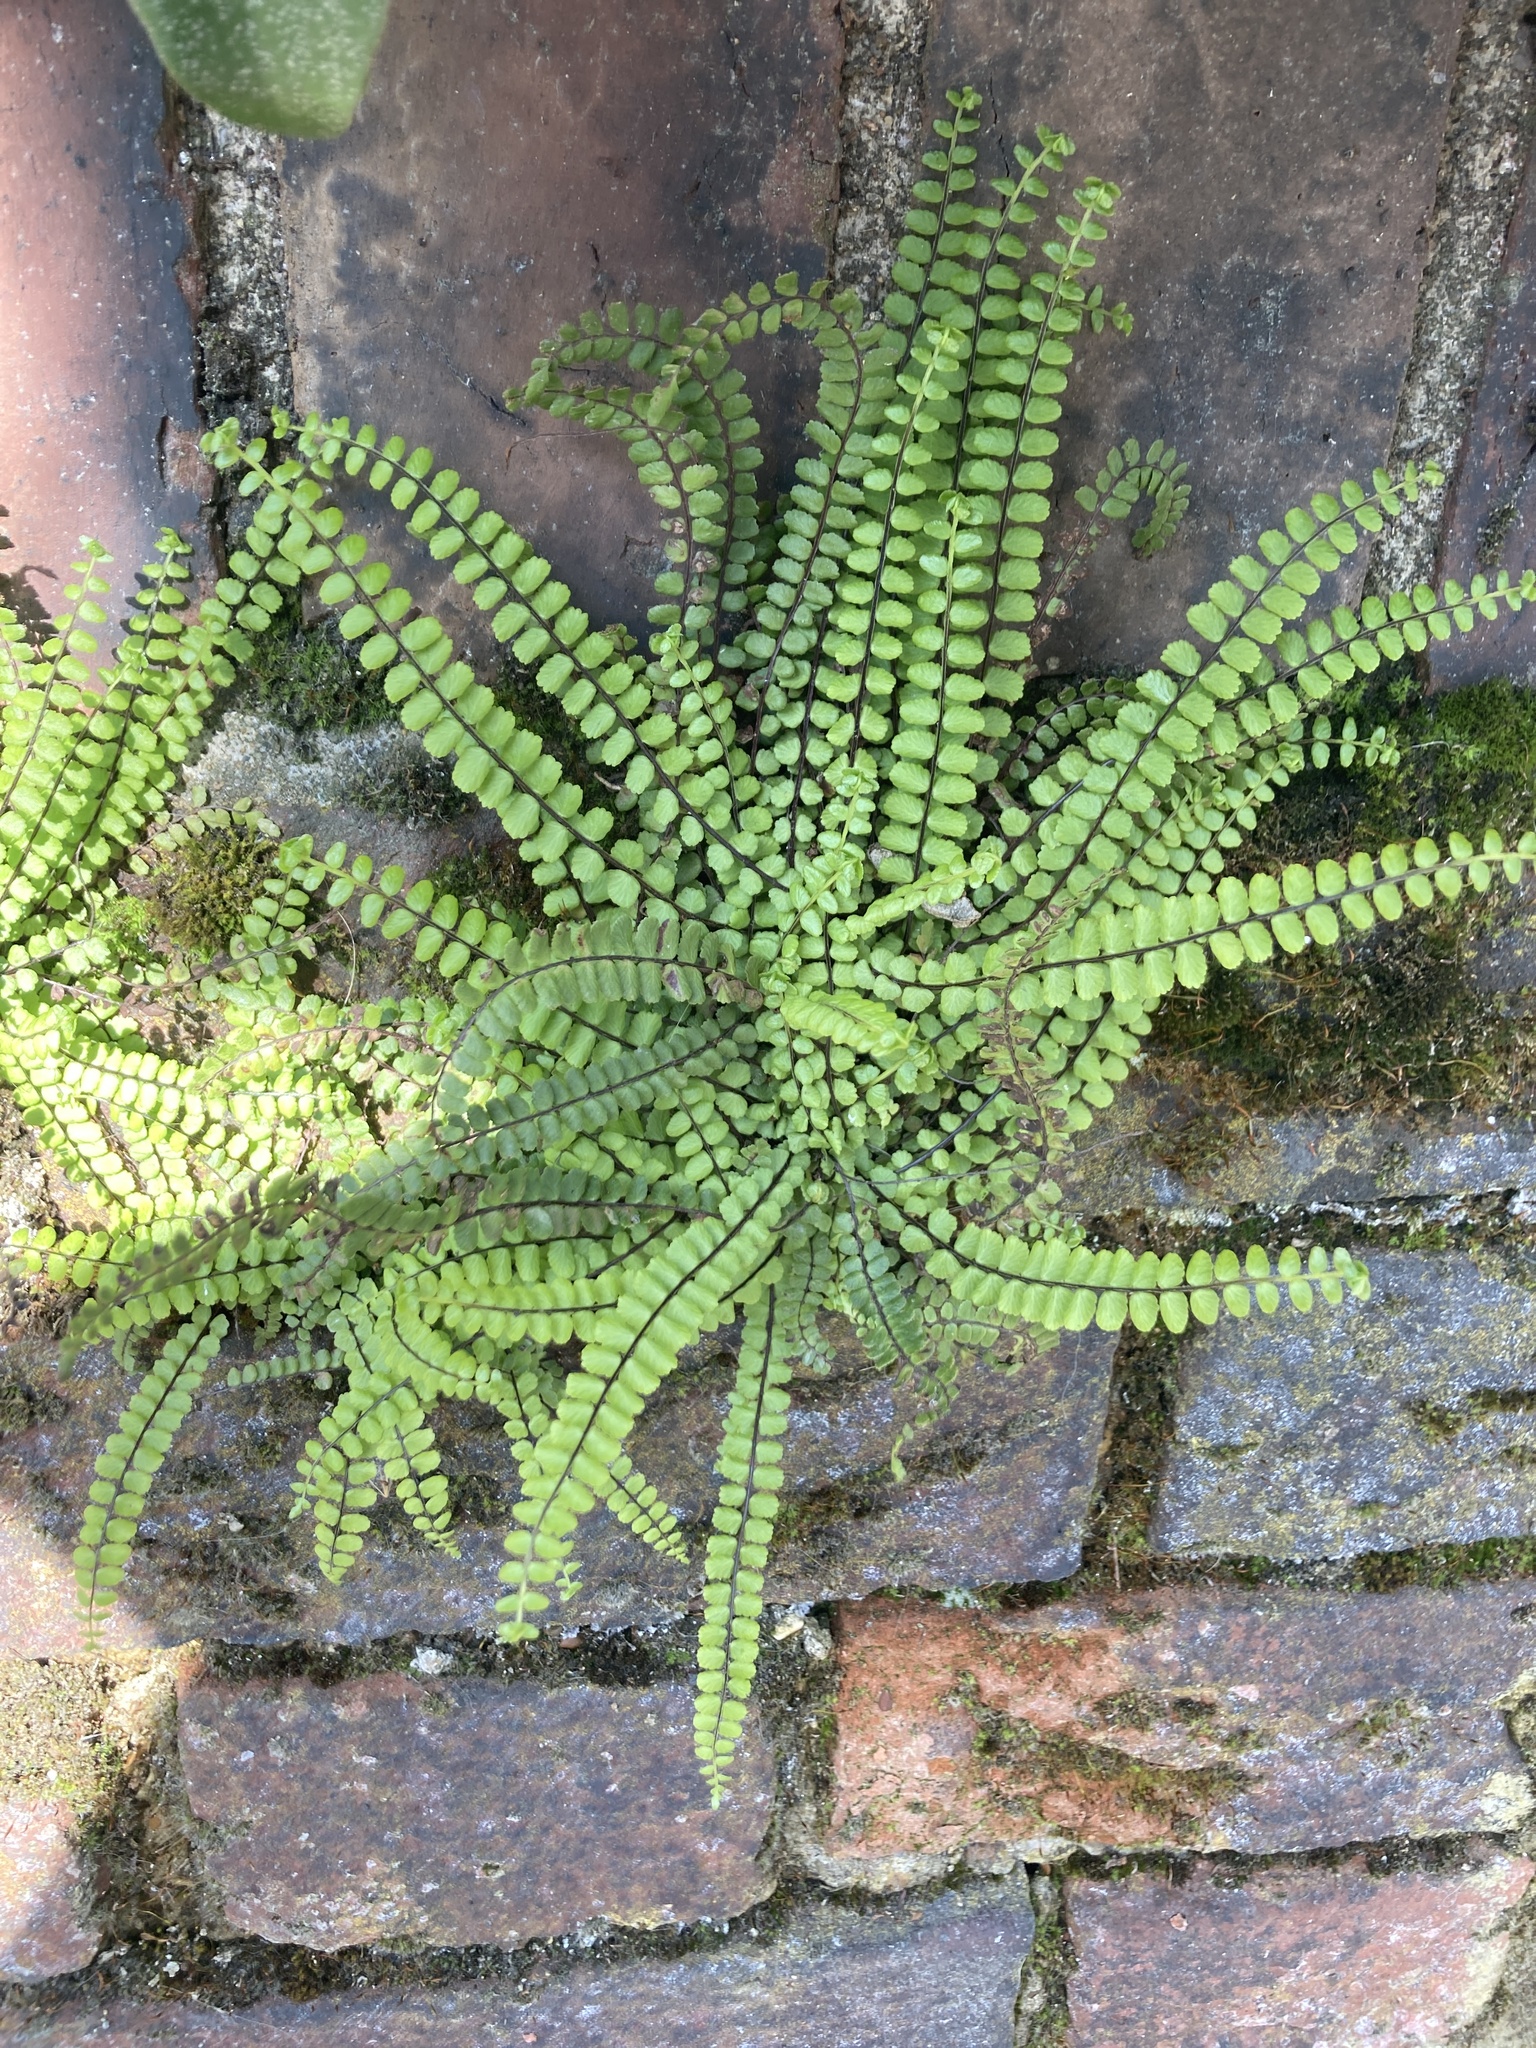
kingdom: Plantae
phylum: Tracheophyta
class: Polypodiopsida
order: Polypodiales
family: Aspleniaceae
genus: Asplenium
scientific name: Asplenium trichomanes
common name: Maidenhair spleenwort
